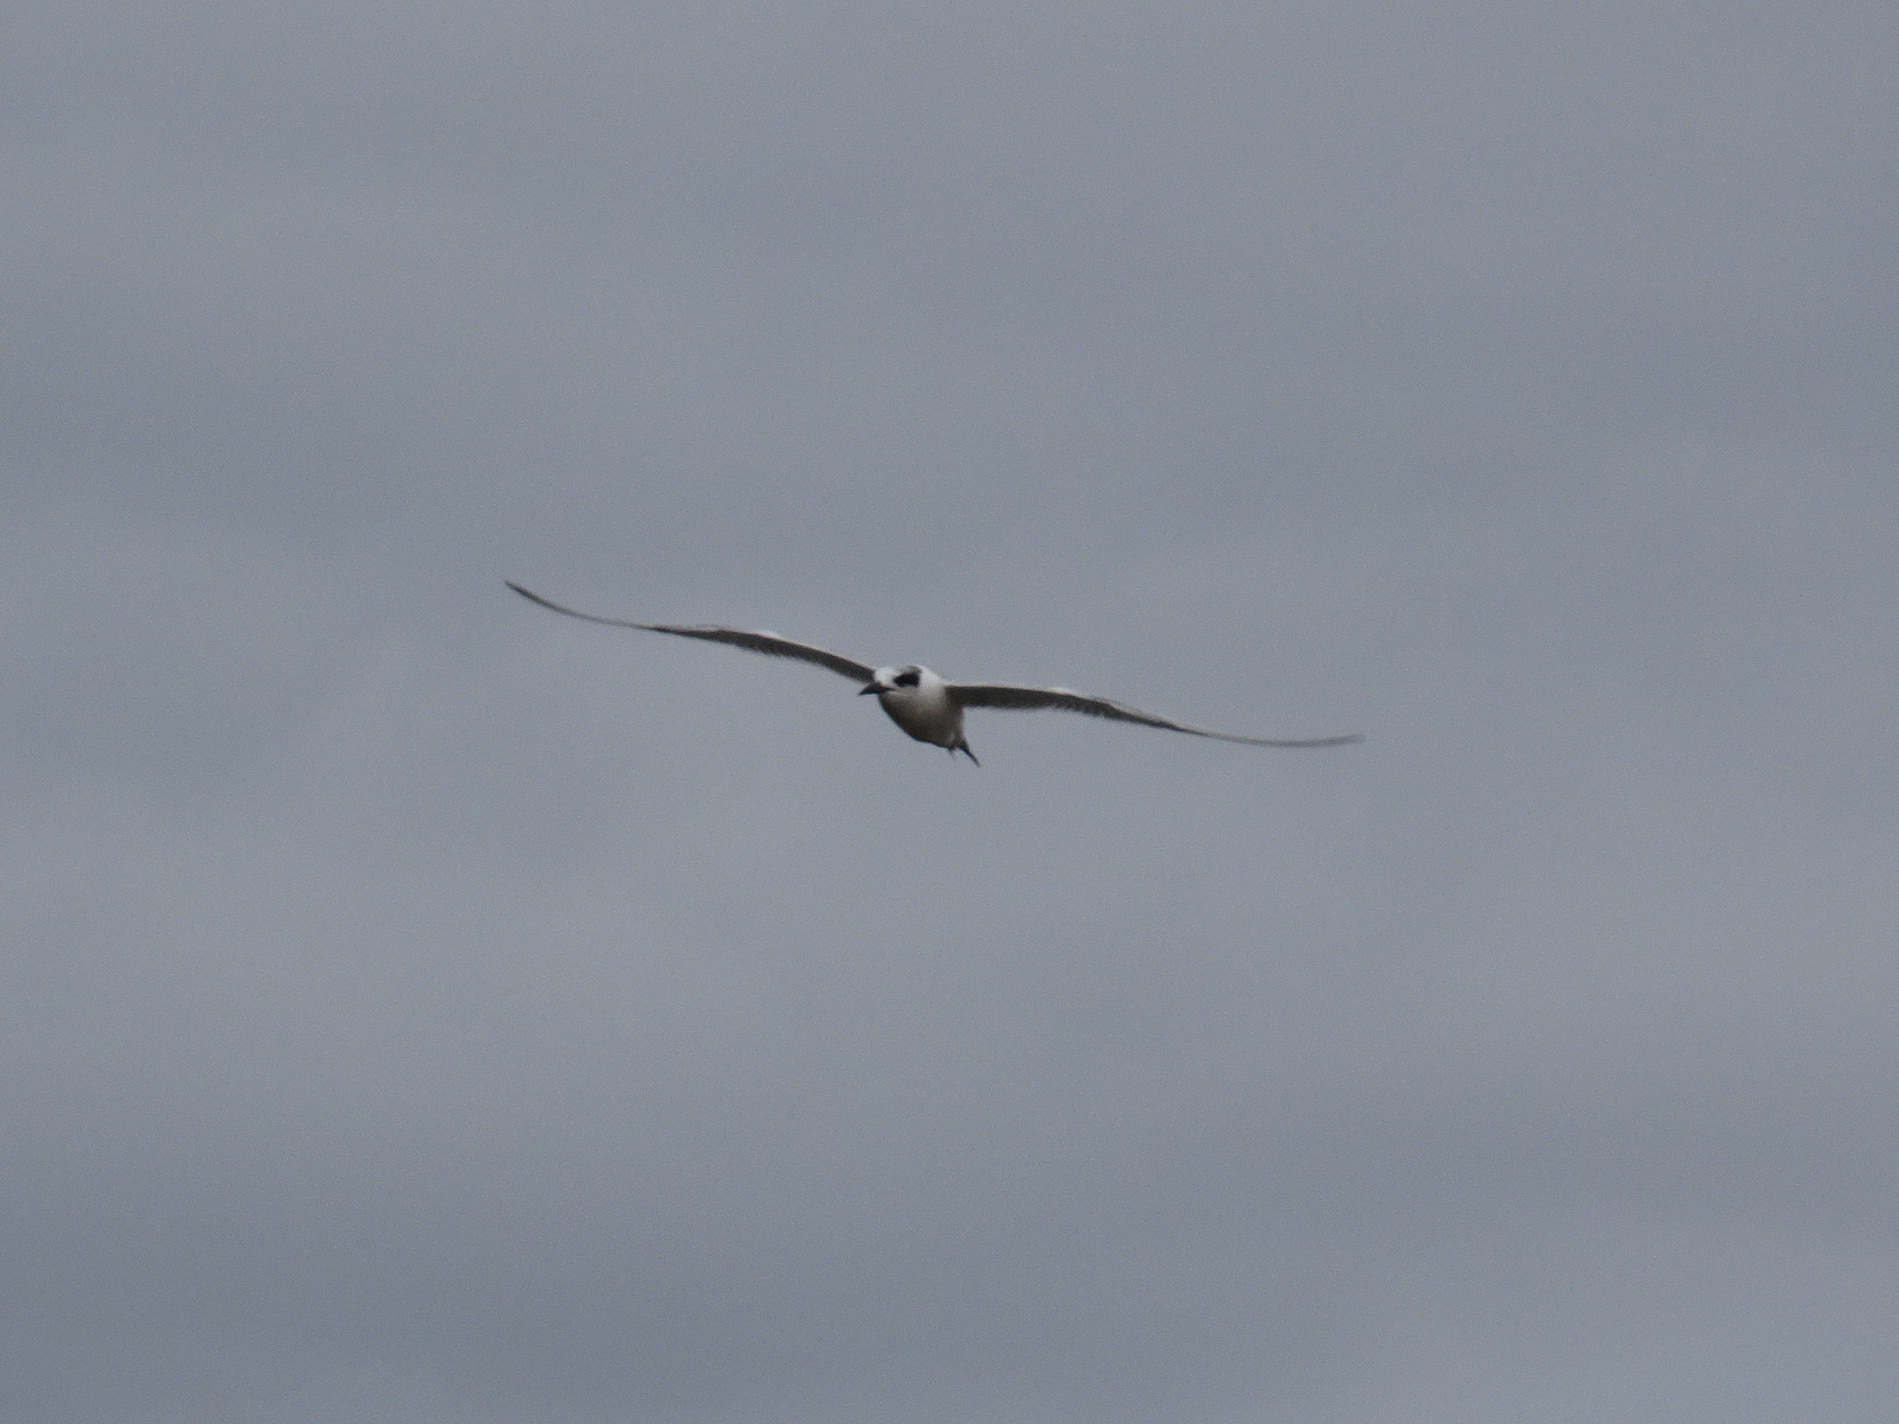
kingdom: Animalia
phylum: Chordata
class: Aves
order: Charadriiformes
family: Laridae
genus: Sterna
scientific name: Sterna forsteri
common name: Forster's tern
